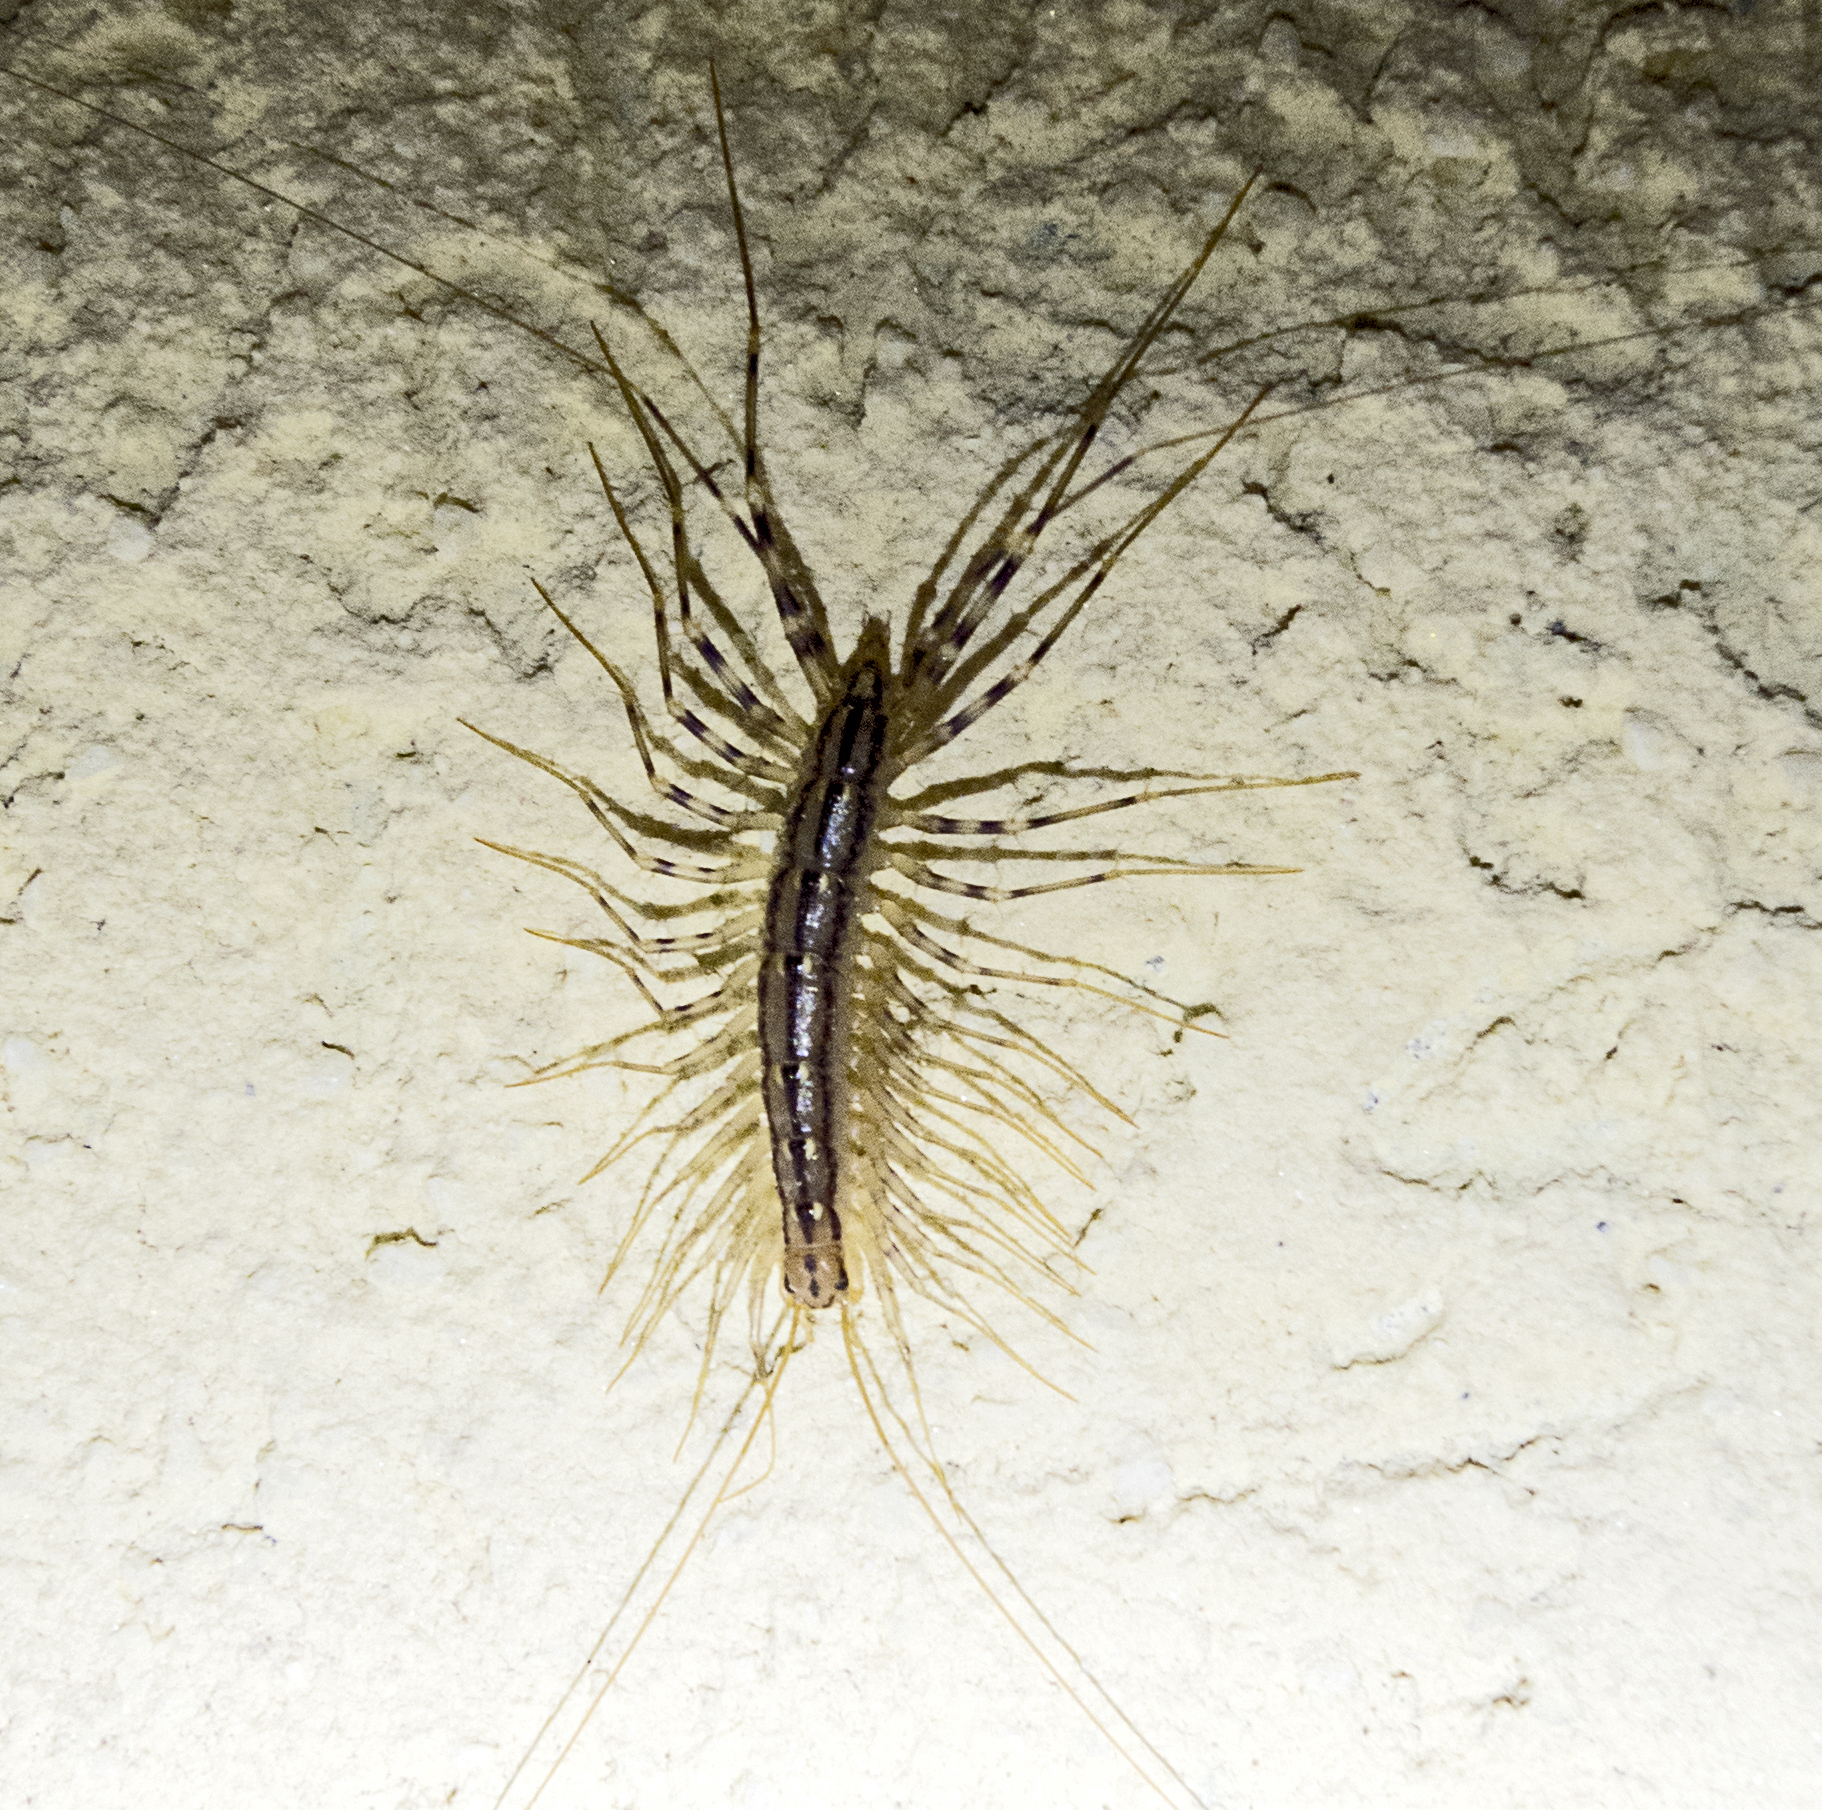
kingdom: Animalia
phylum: Arthropoda
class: Chilopoda
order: Scutigeromorpha
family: Scutigeridae
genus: Scutigera
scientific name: Scutigera coleoptrata
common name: House centipede
